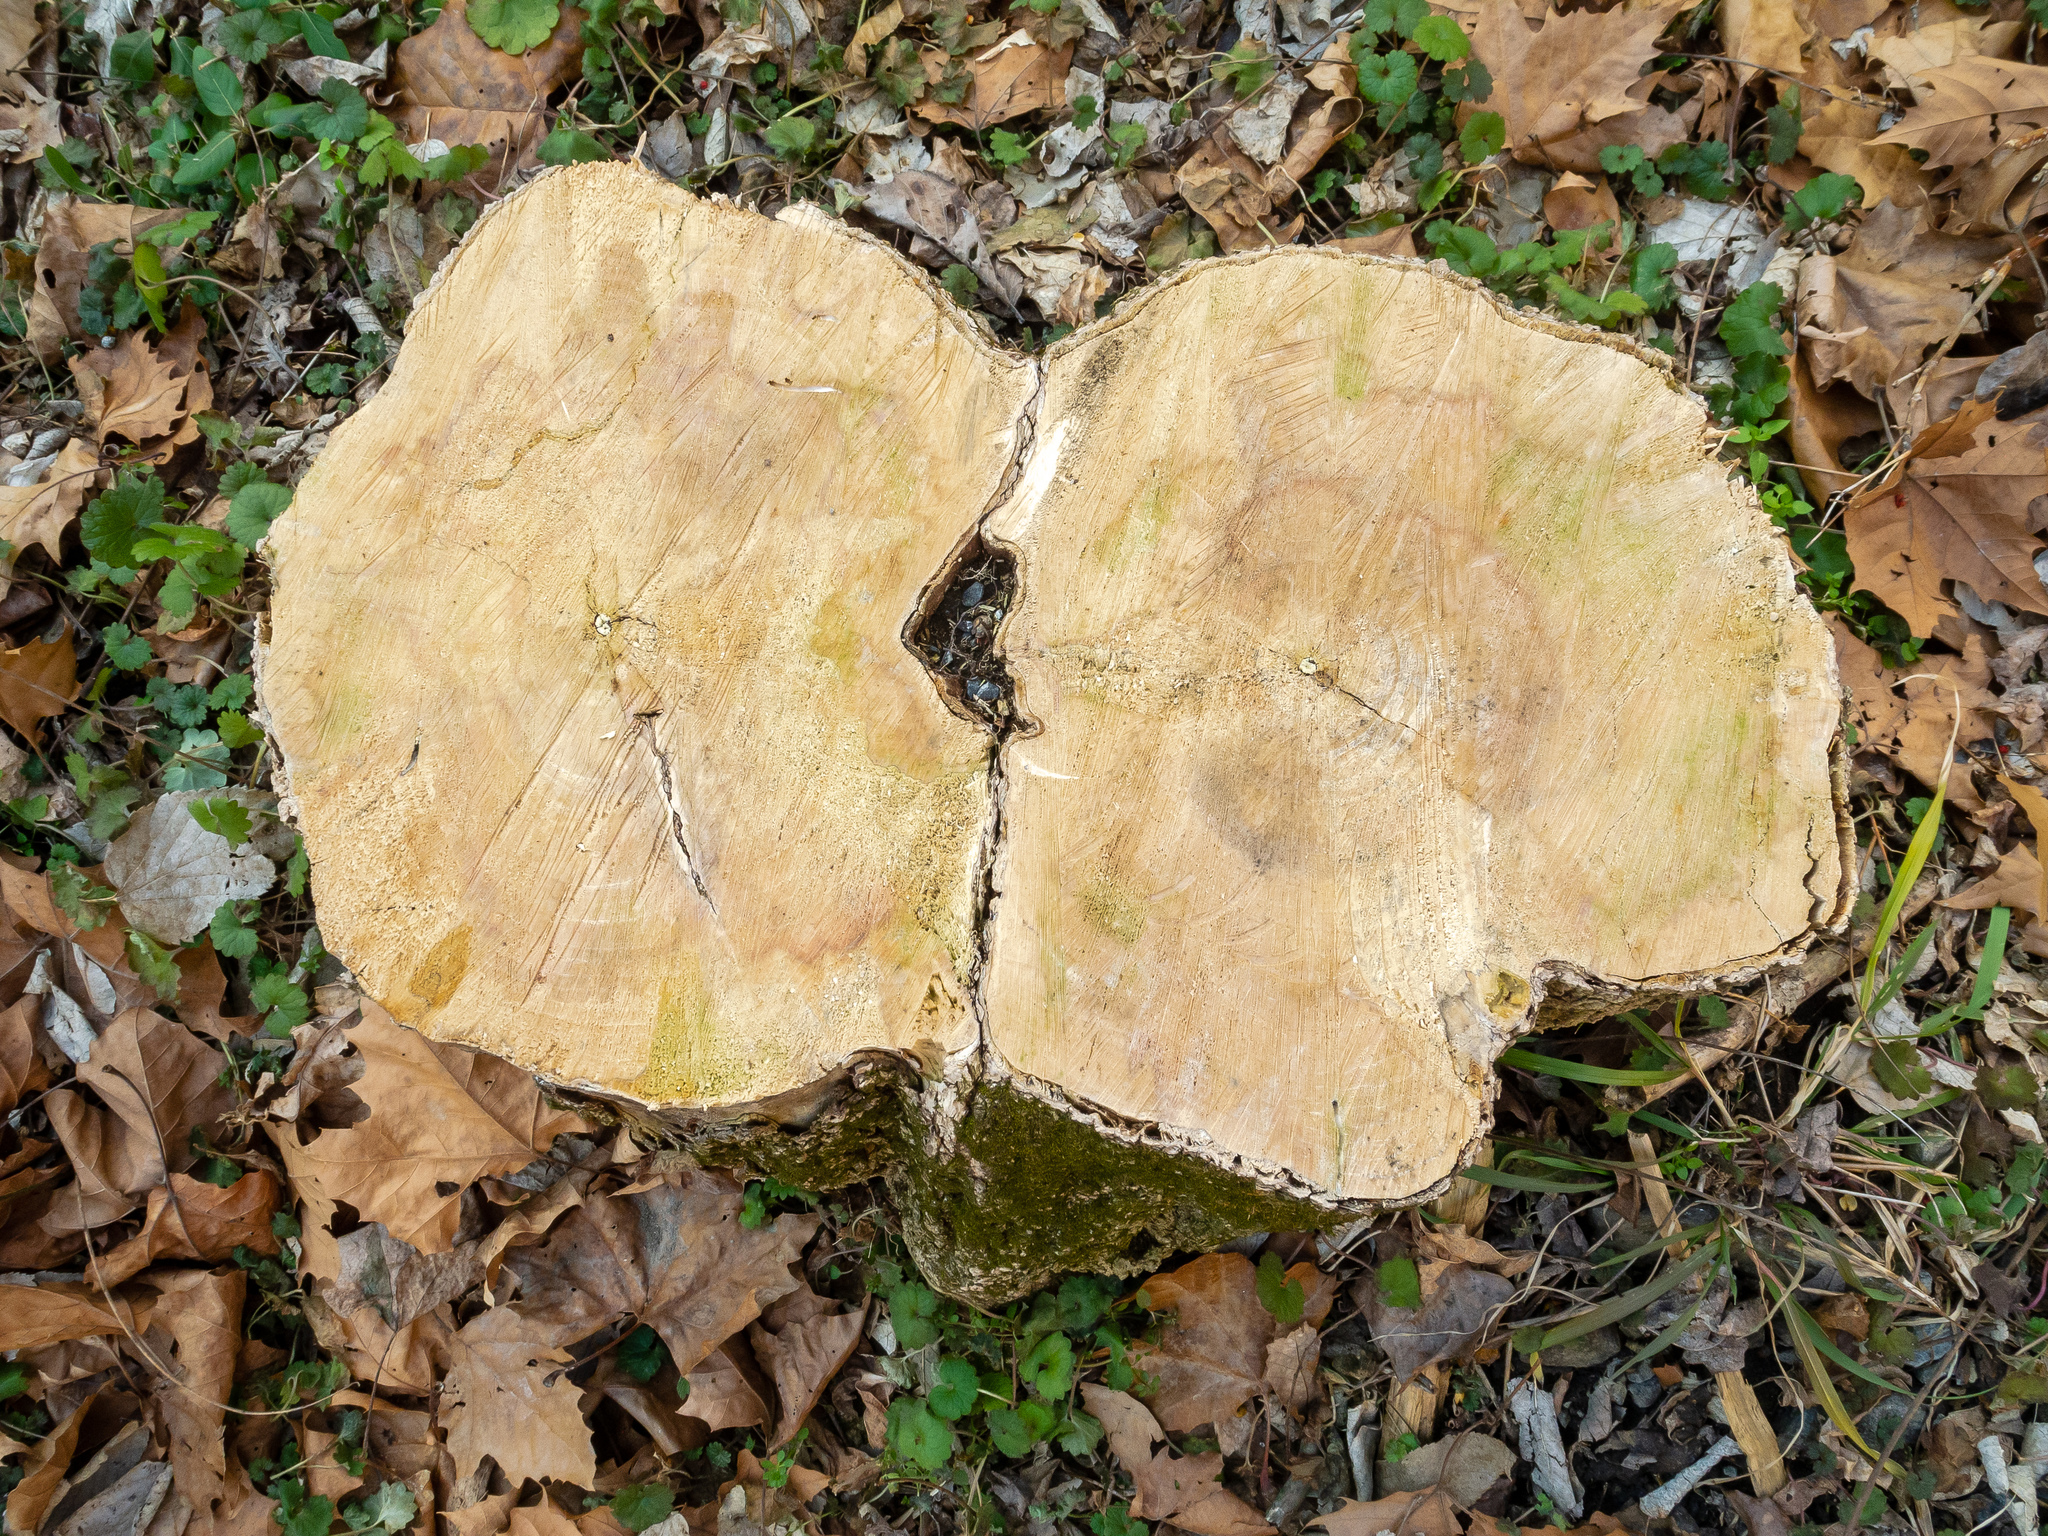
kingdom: Plantae
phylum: Tracheophyta
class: Magnoliopsida
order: Sapindales
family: Sapindaceae
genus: Acer
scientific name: Acer negundo
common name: Ashleaf maple
